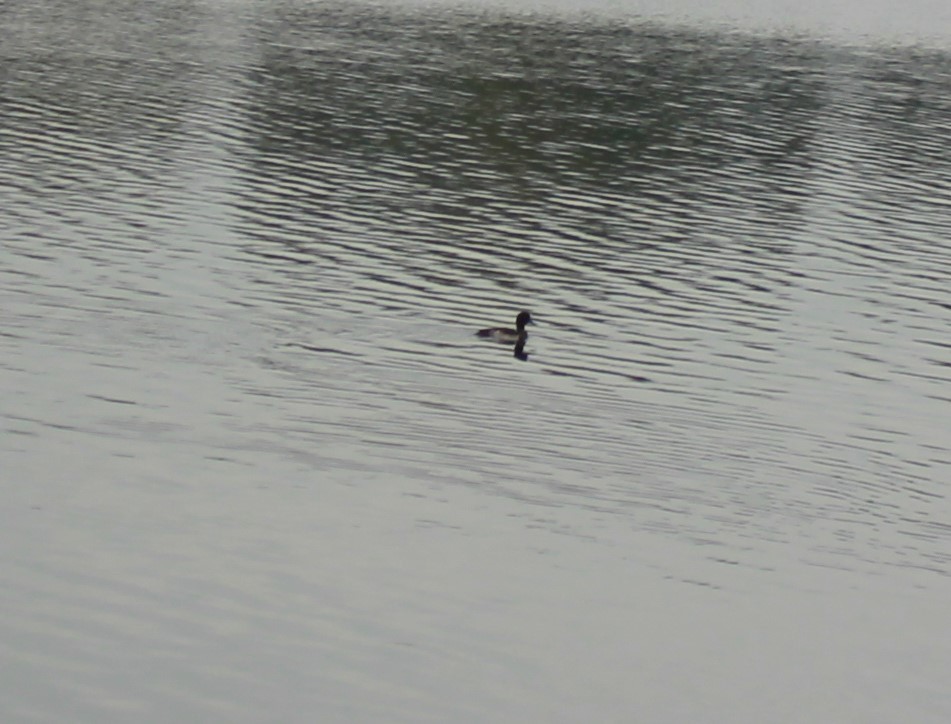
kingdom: Animalia
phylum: Chordata
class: Aves
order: Anseriformes
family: Anatidae
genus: Aythya
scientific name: Aythya fuligula
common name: Tufted duck
